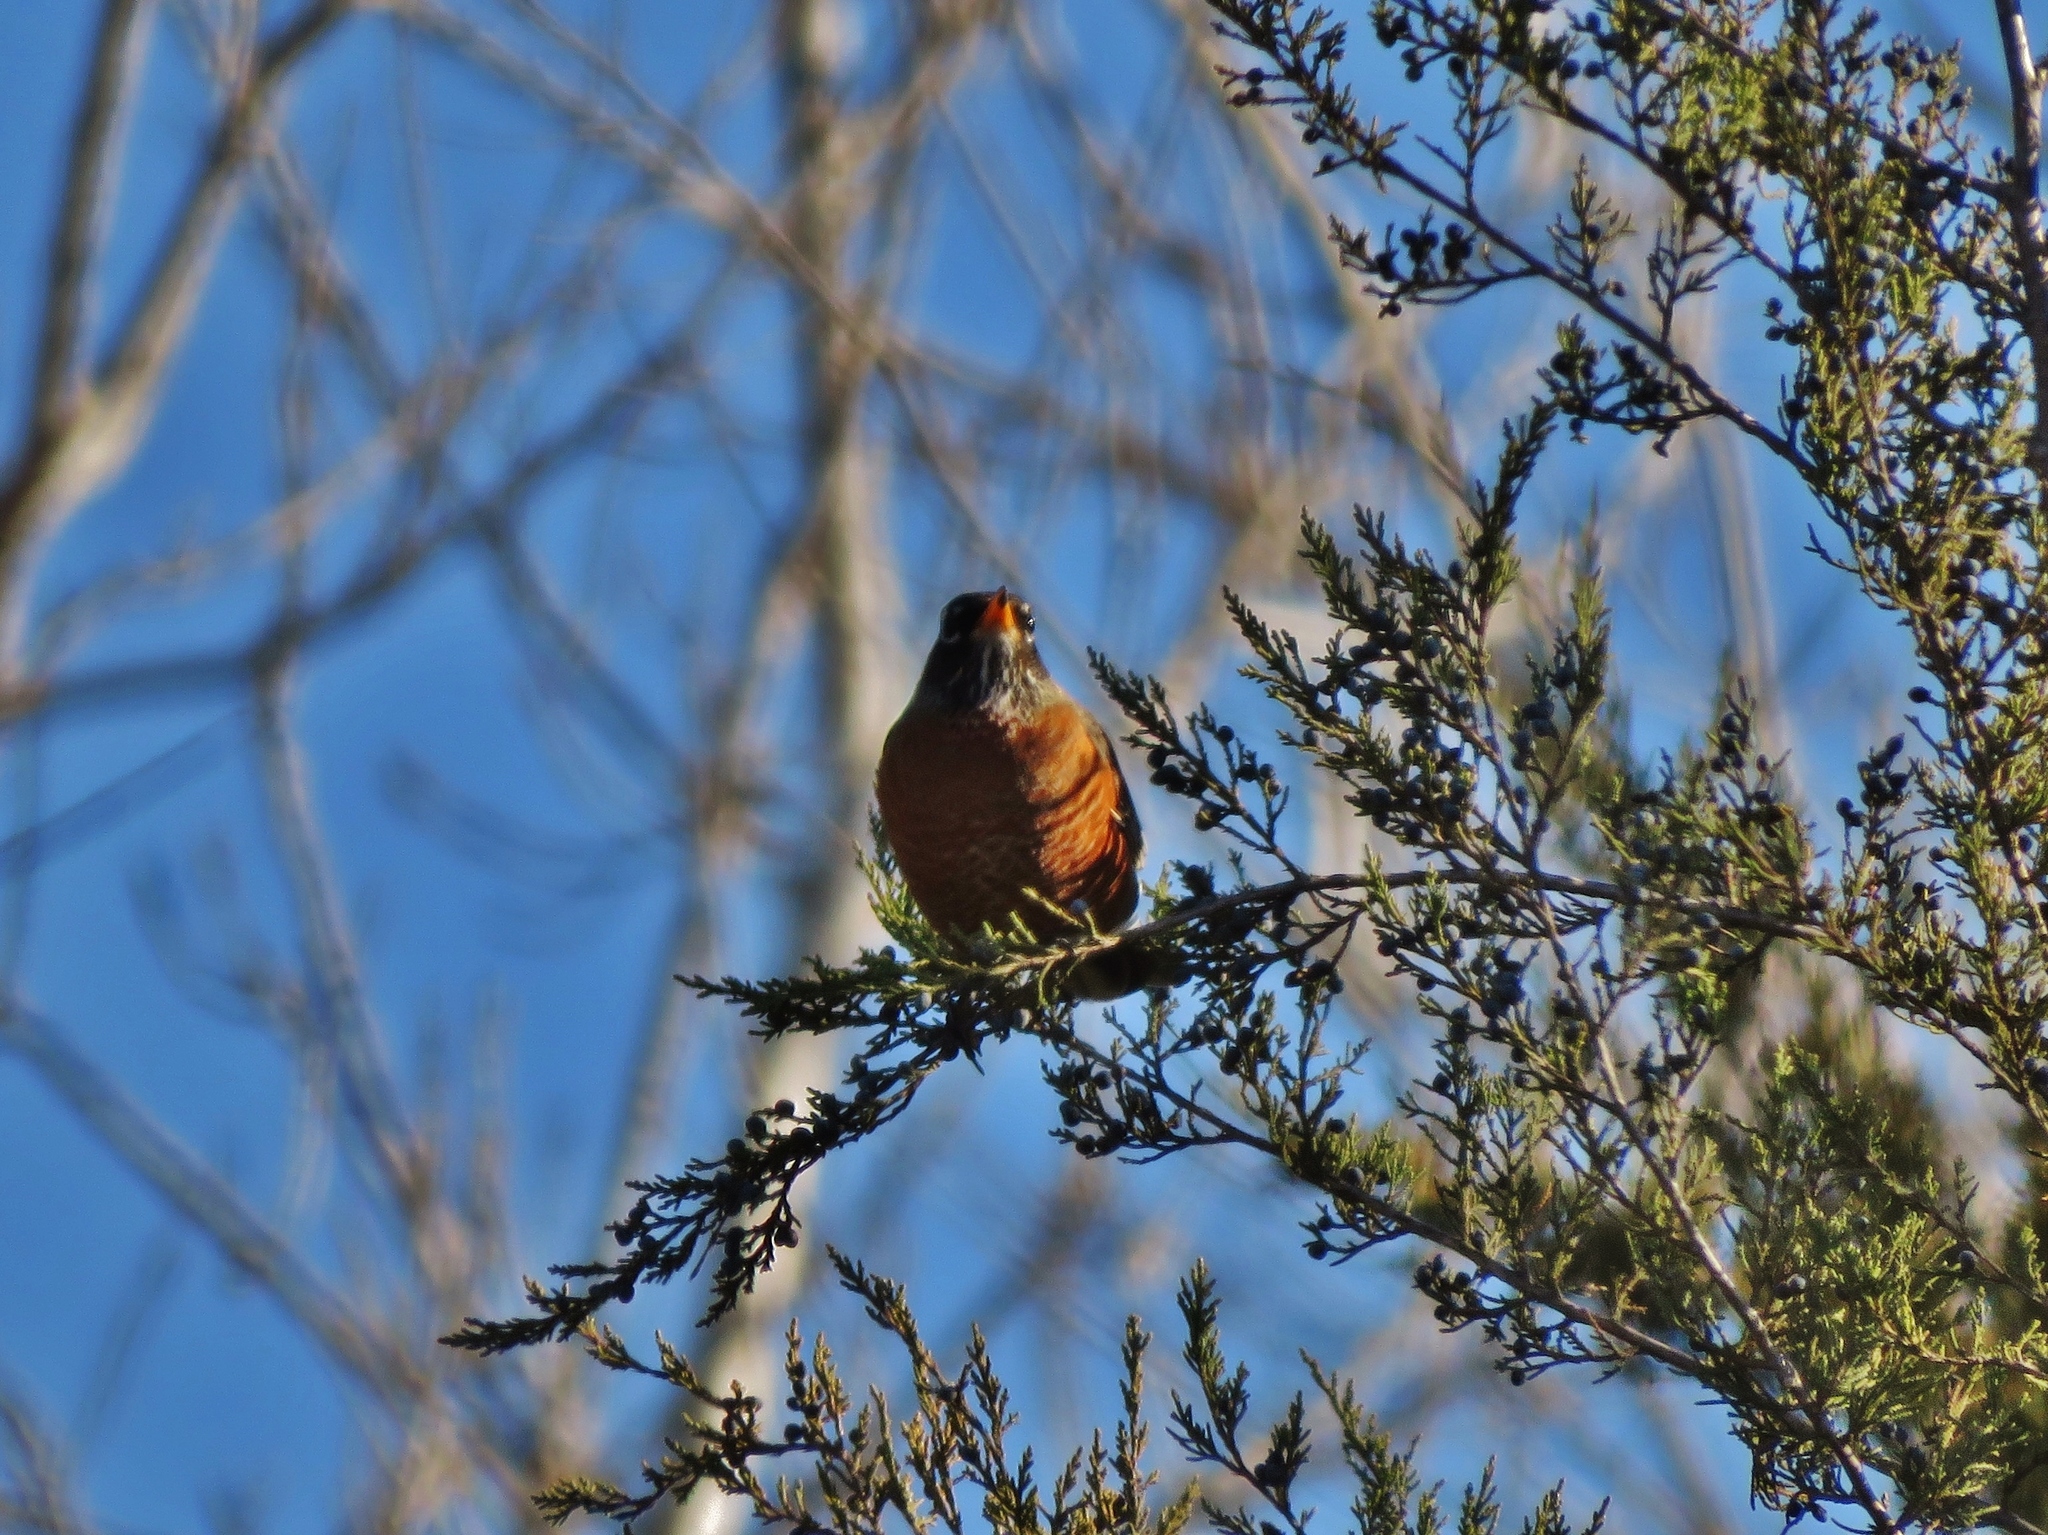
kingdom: Animalia
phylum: Chordata
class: Aves
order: Passeriformes
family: Turdidae
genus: Turdus
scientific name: Turdus migratorius
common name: American robin
